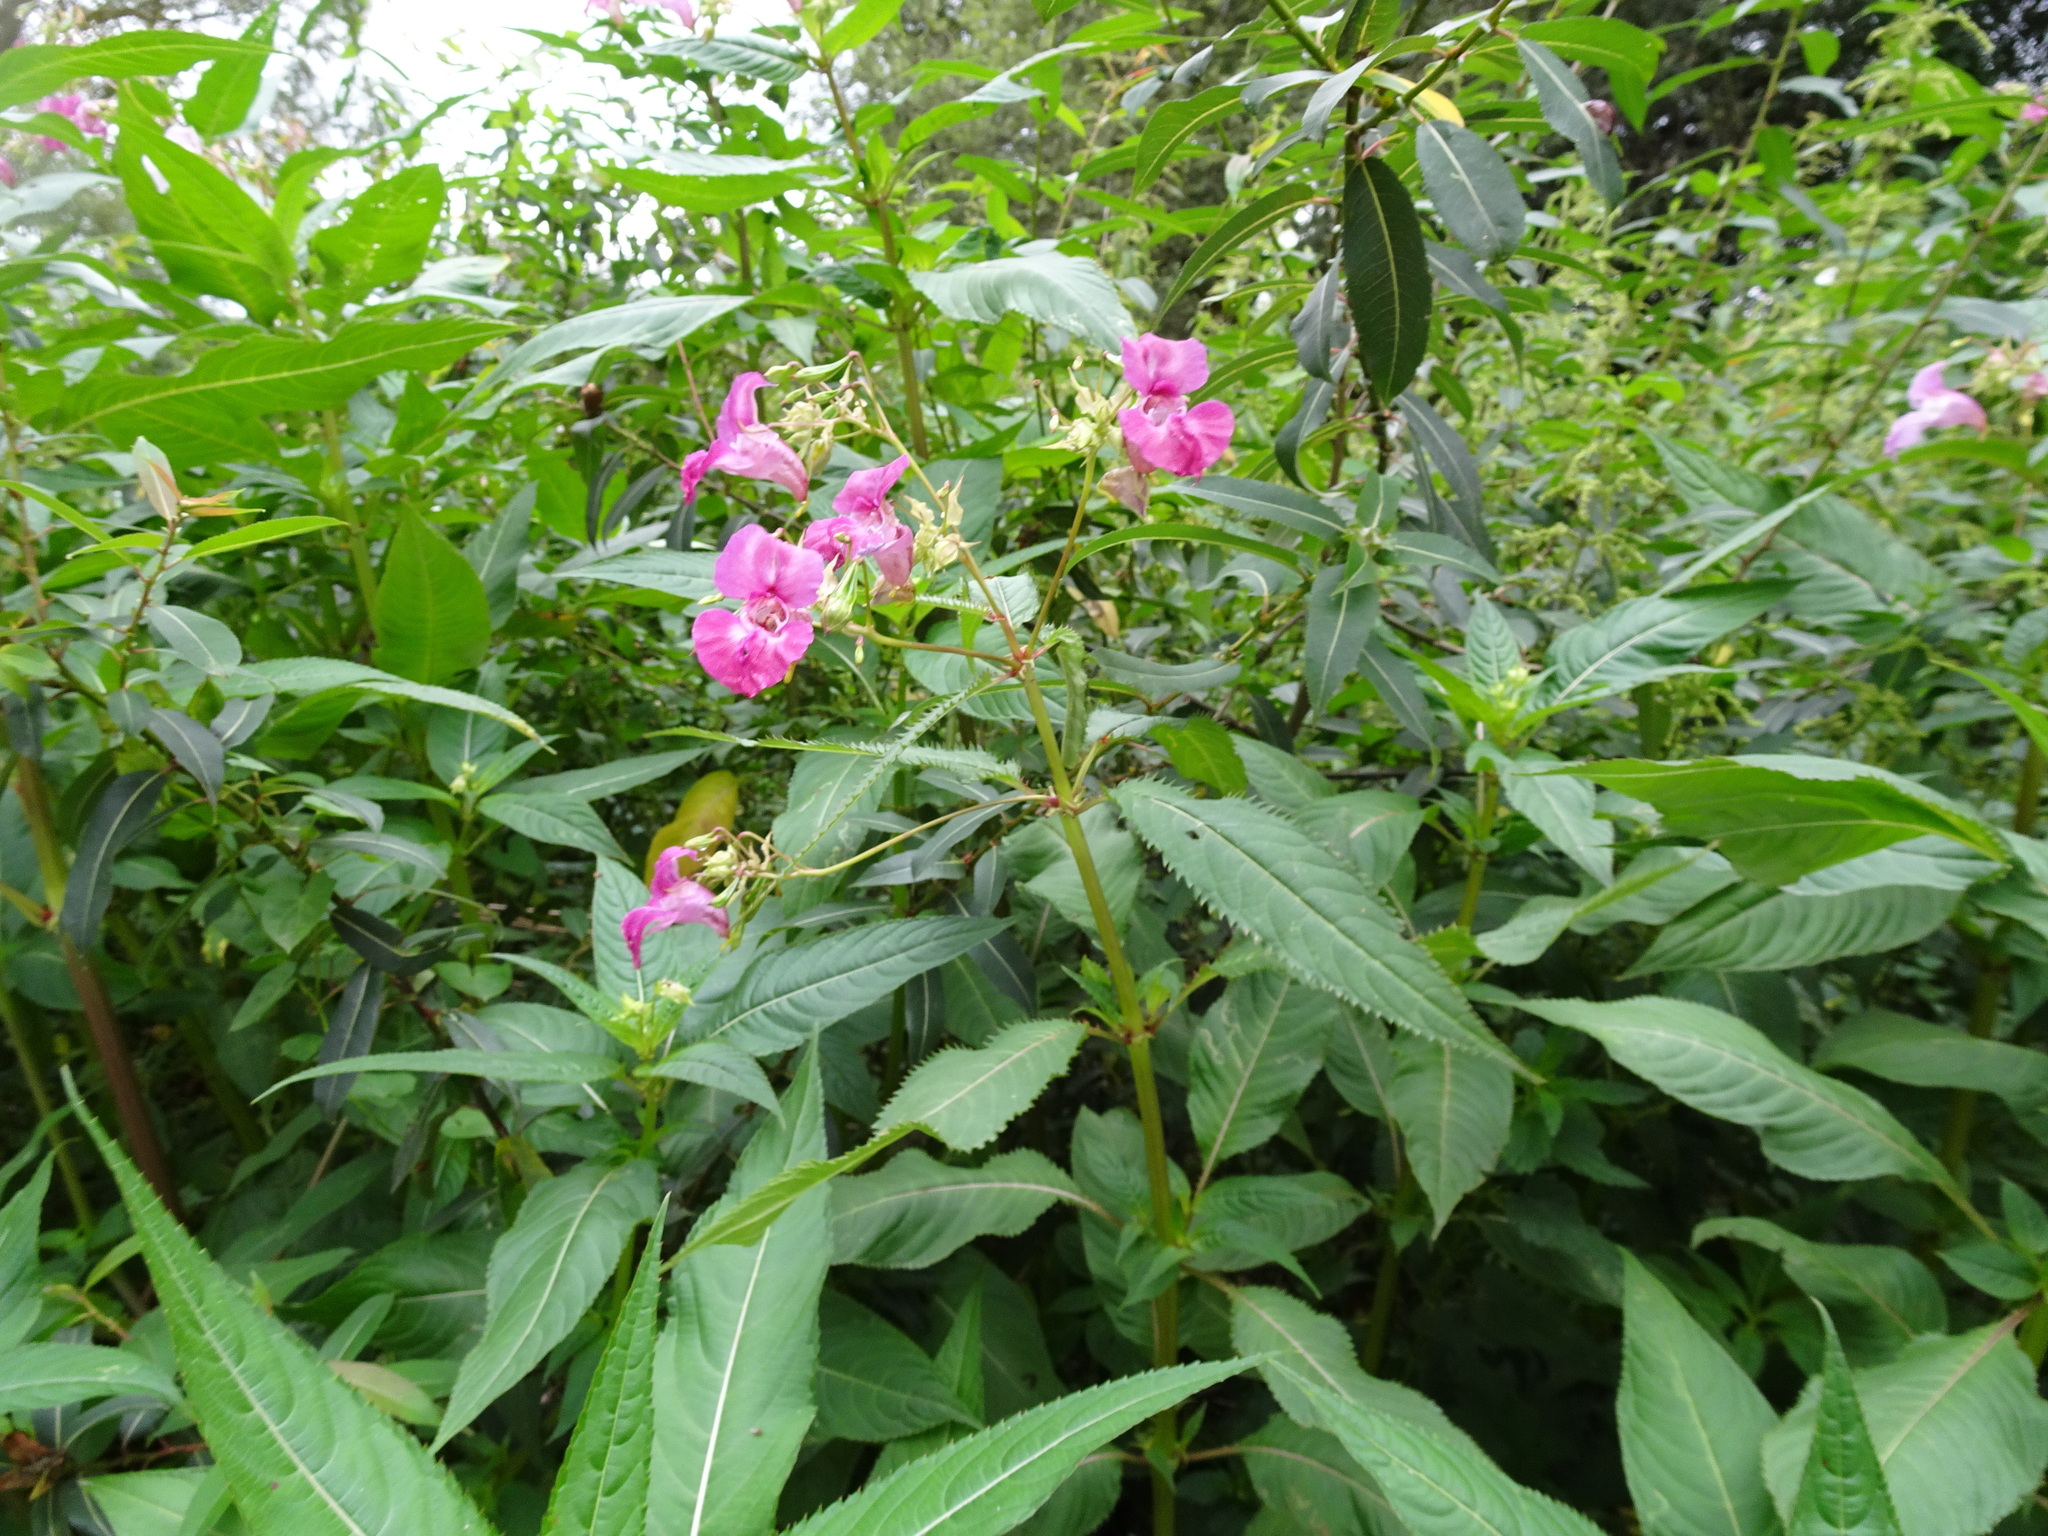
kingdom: Plantae
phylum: Tracheophyta
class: Magnoliopsida
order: Ericales
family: Balsaminaceae
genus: Impatiens
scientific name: Impatiens glandulifera
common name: Himalayan balsam
